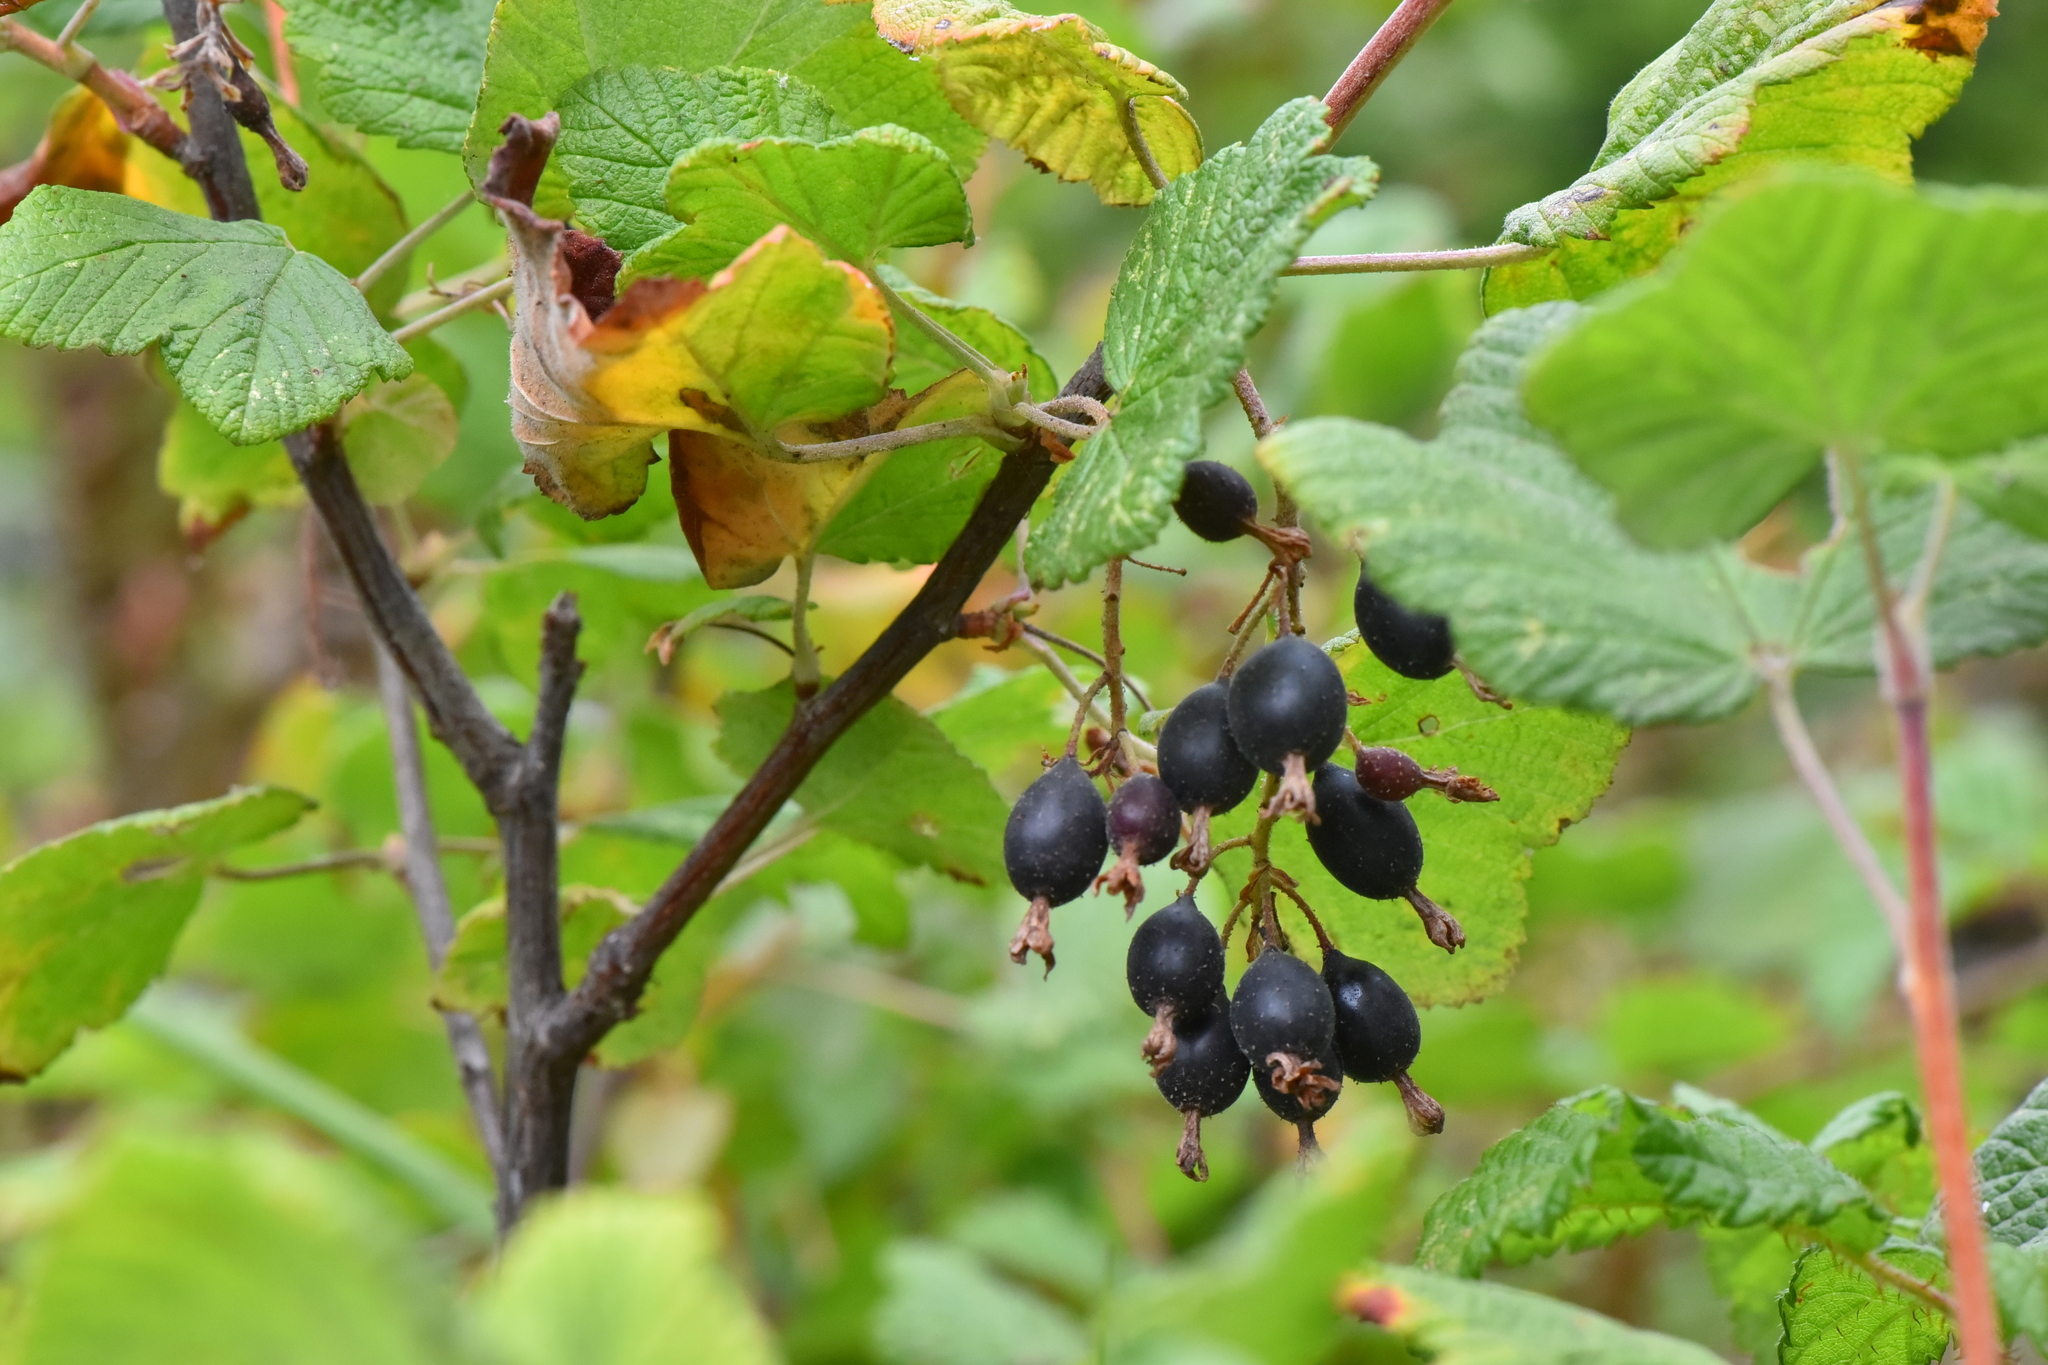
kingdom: Plantae
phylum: Tracheophyta
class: Magnoliopsida
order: Saxifragales
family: Grossulariaceae
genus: Ribes
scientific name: Ribes sanguineum
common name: Flowering currant
